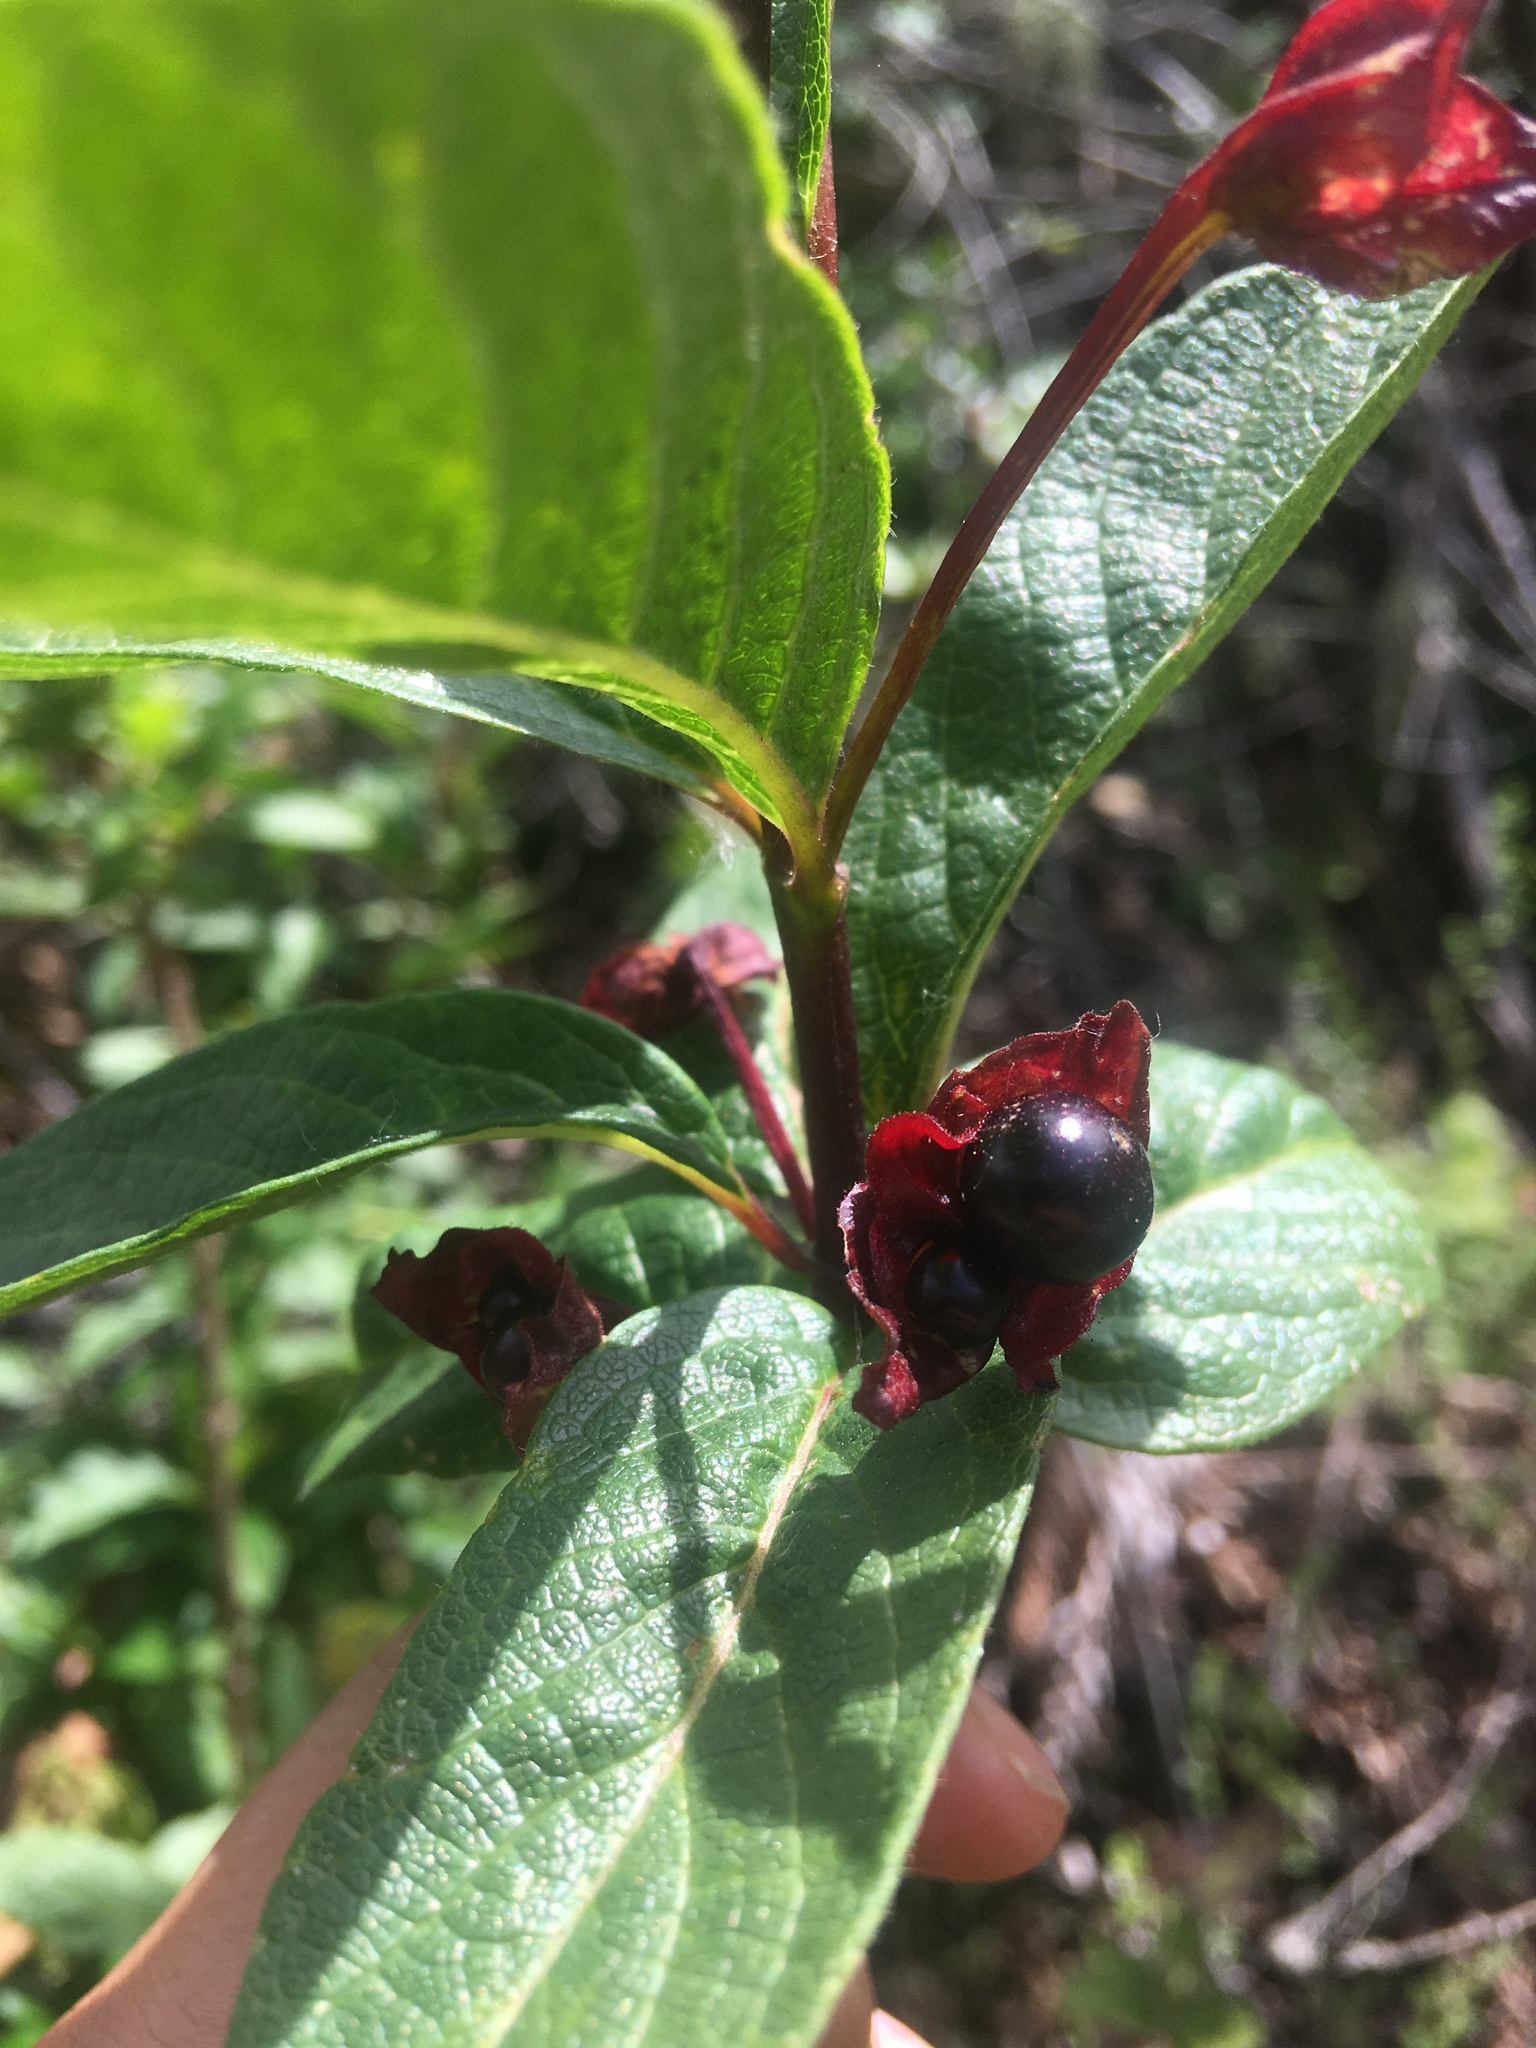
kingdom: Plantae
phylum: Tracheophyta
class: Magnoliopsida
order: Dipsacales
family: Caprifoliaceae
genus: Lonicera
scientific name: Lonicera involucrata
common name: Californian honeysuckle
